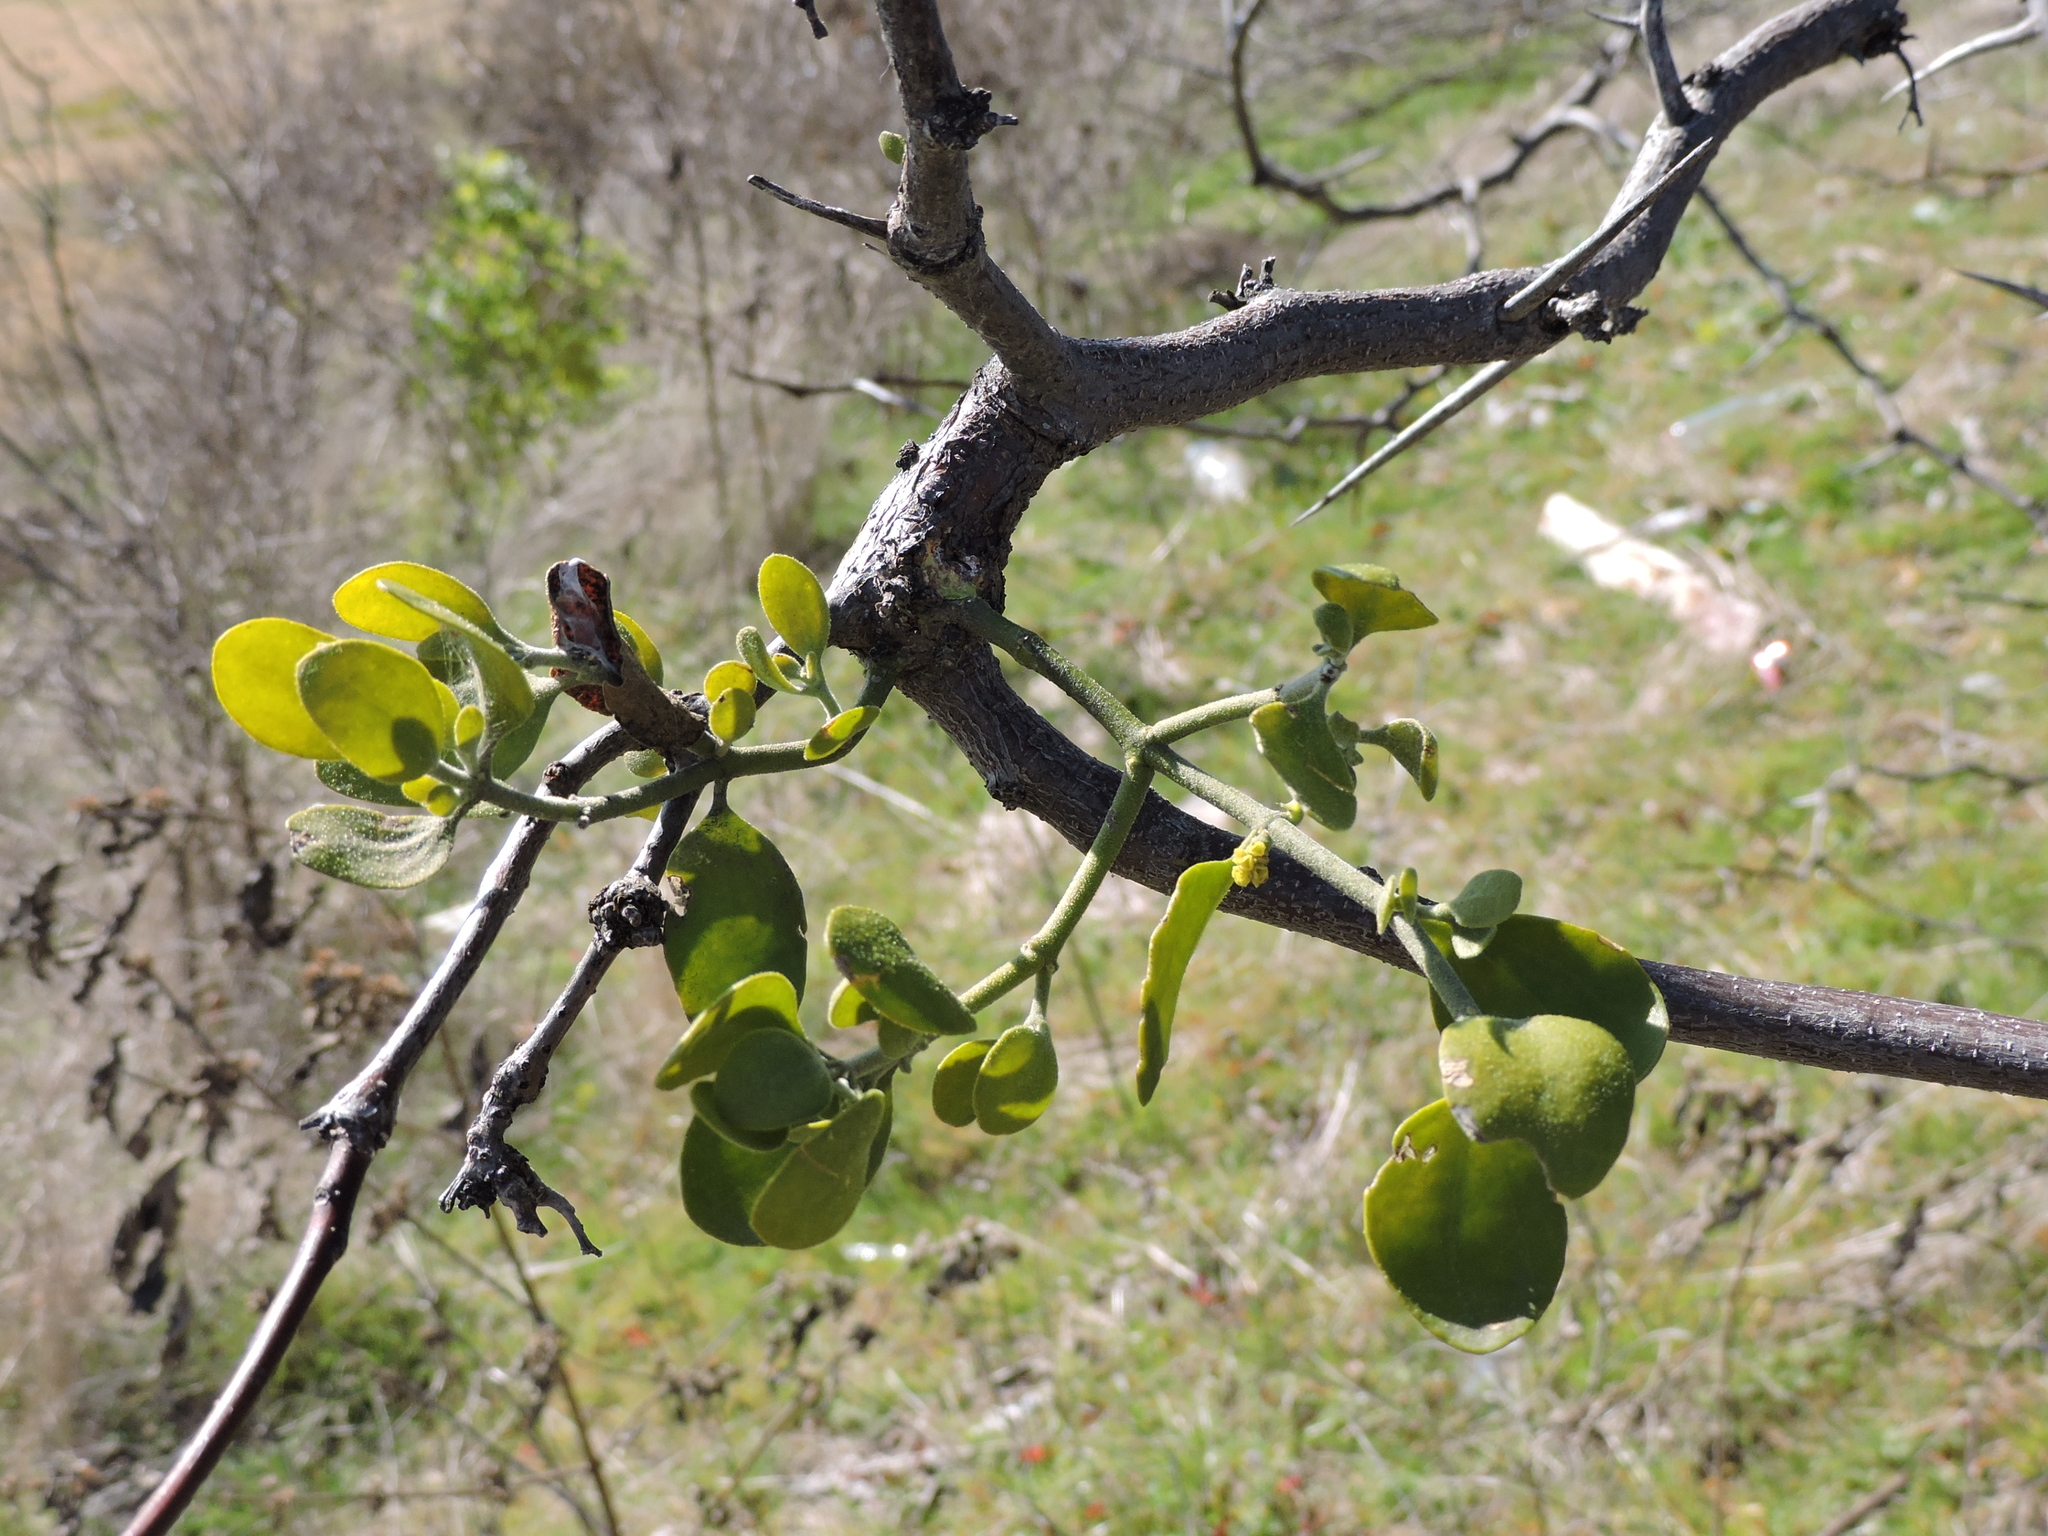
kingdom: Plantae
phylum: Tracheophyta
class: Magnoliopsida
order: Santalales
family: Viscaceae
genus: Phoradendron
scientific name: Phoradendron leucarpum
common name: Pacific mistletoe
